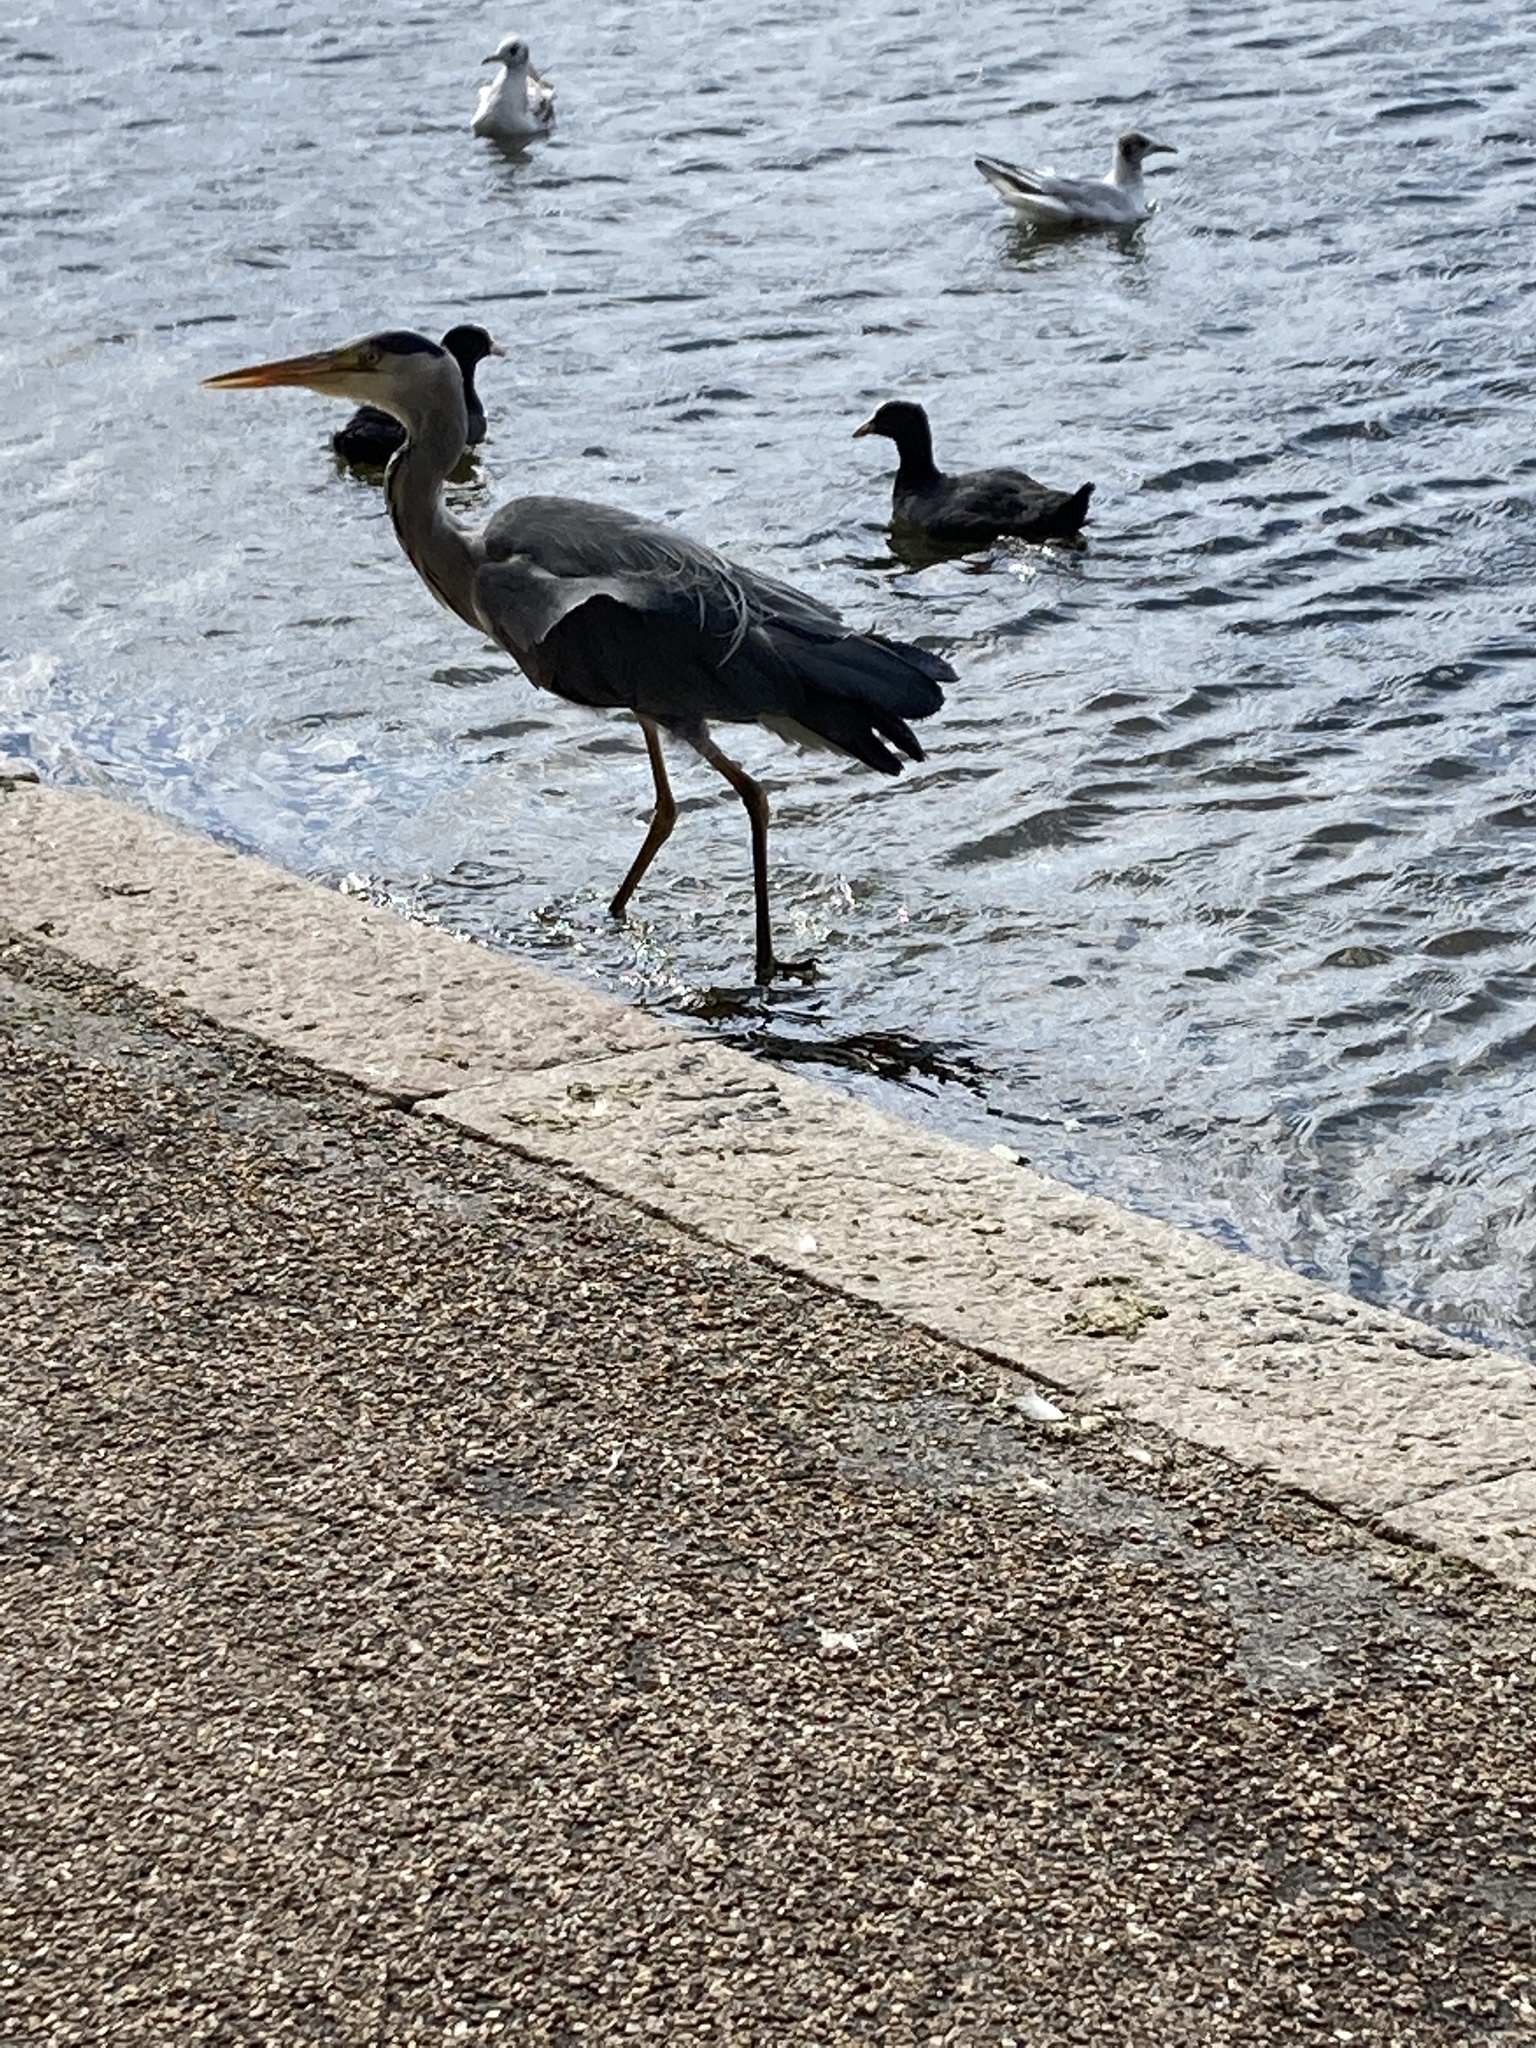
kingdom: Animalia
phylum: Chordata
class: Aves
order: Pelecaniformes
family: Ardeidae
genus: Ardea
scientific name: Ardea cinerea
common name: Grey heron
